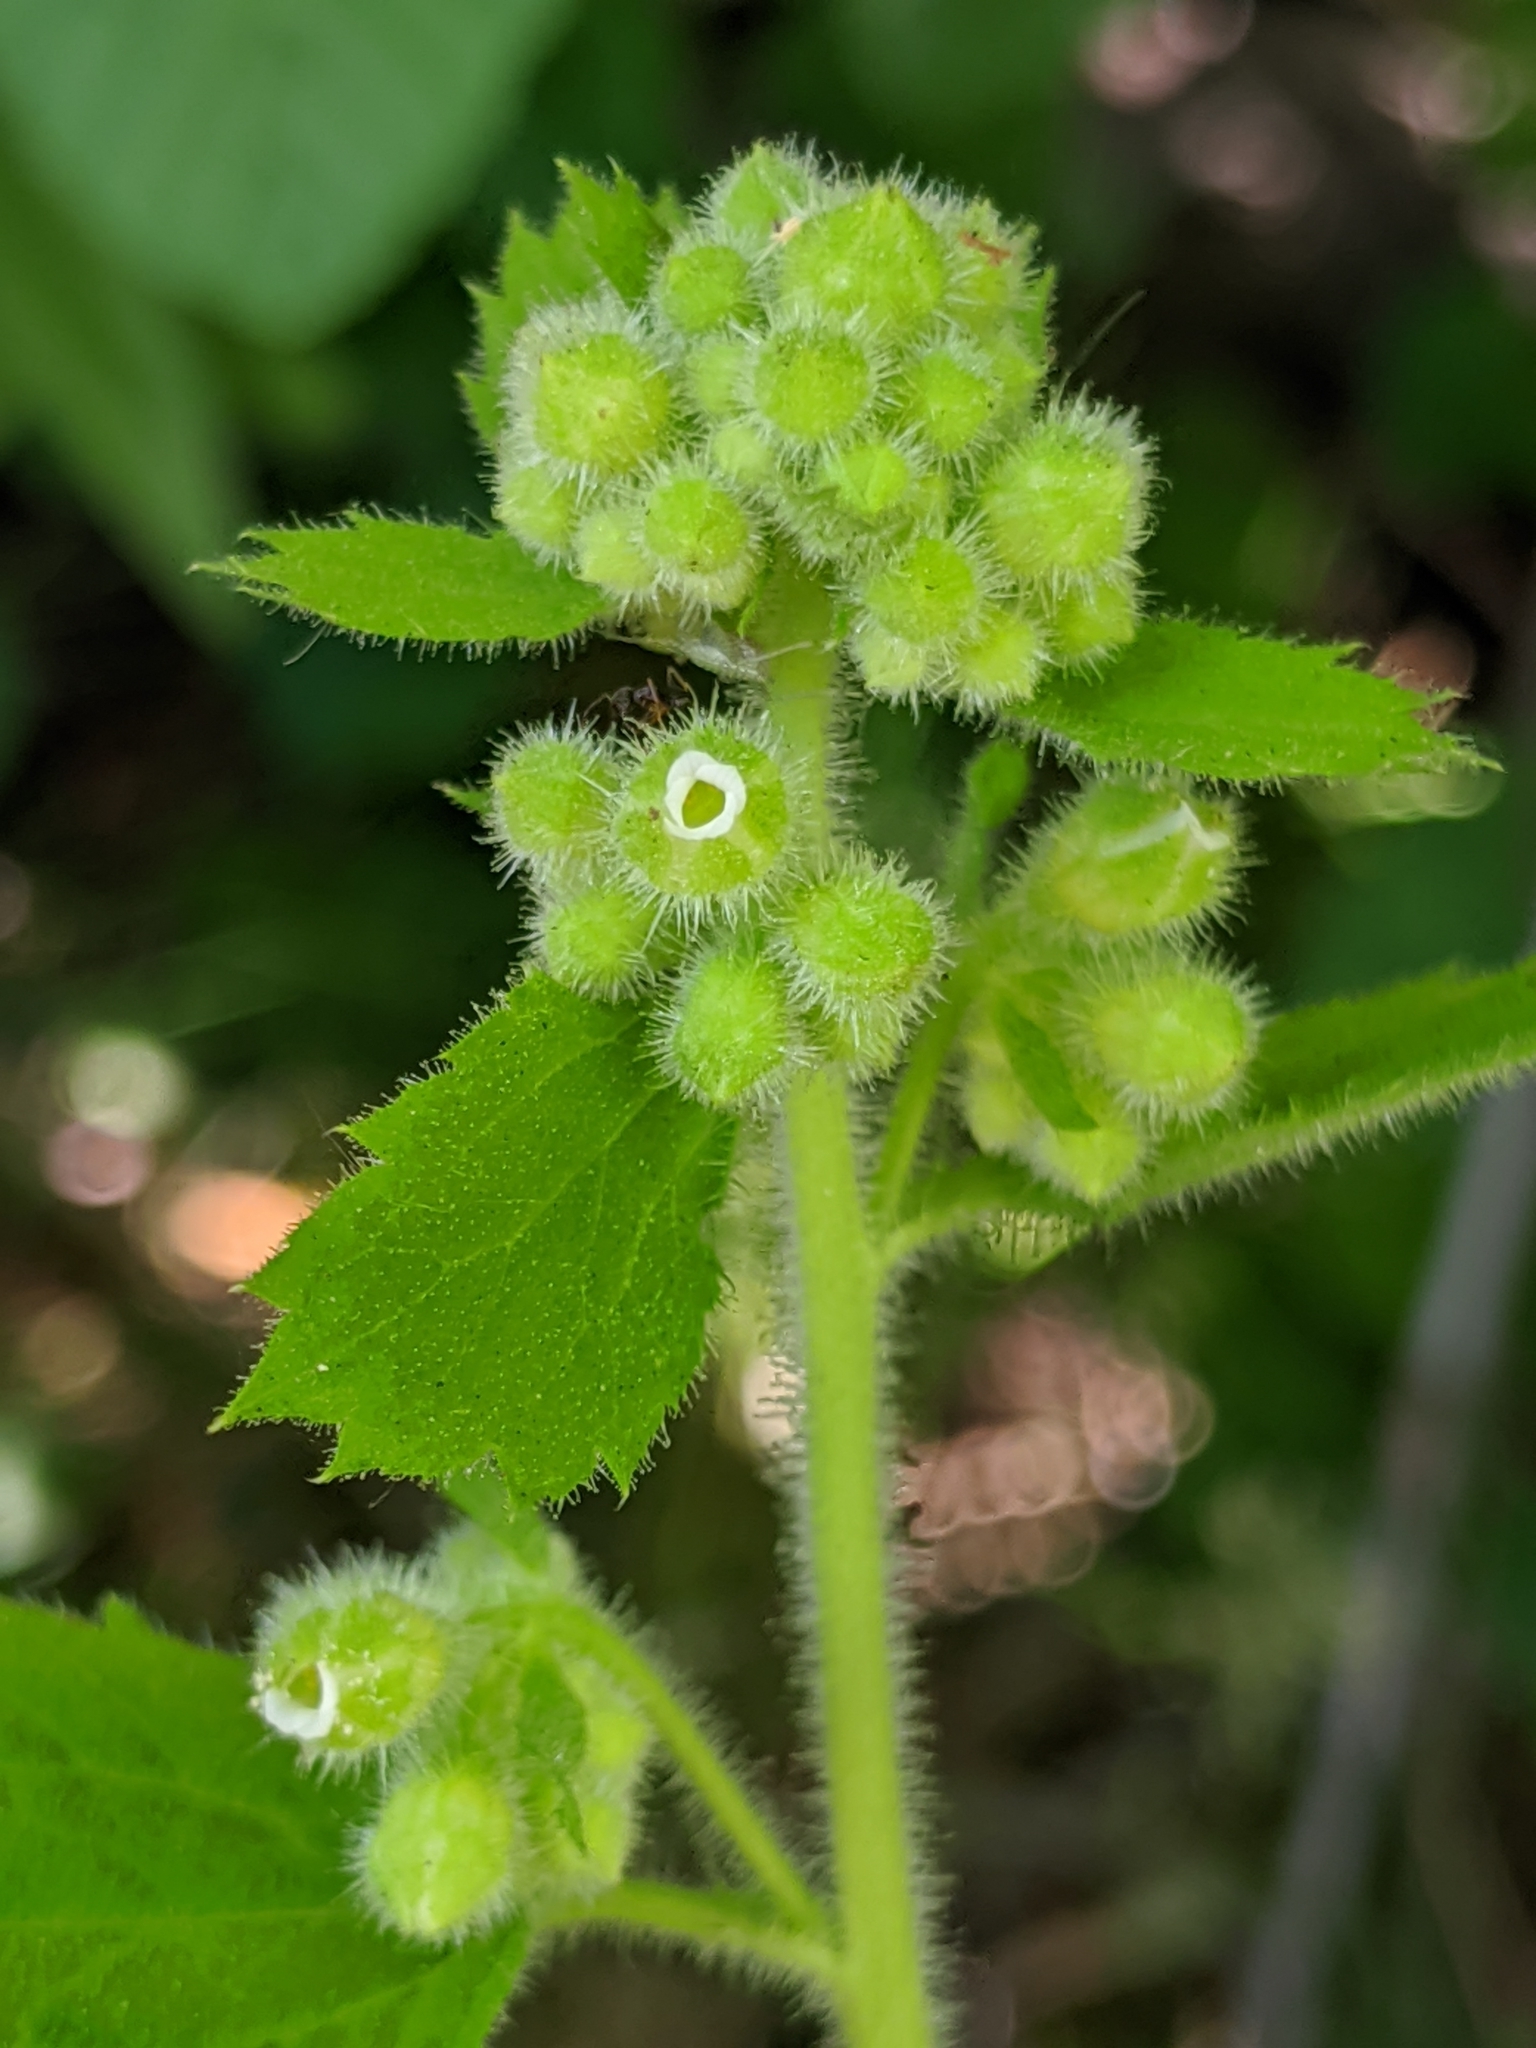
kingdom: Plantae
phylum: Tracheophyta
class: Magnoliopsida
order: Saxifragales
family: Saxifragaceae
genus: Boykinia
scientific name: Boykinia rotundifolia
